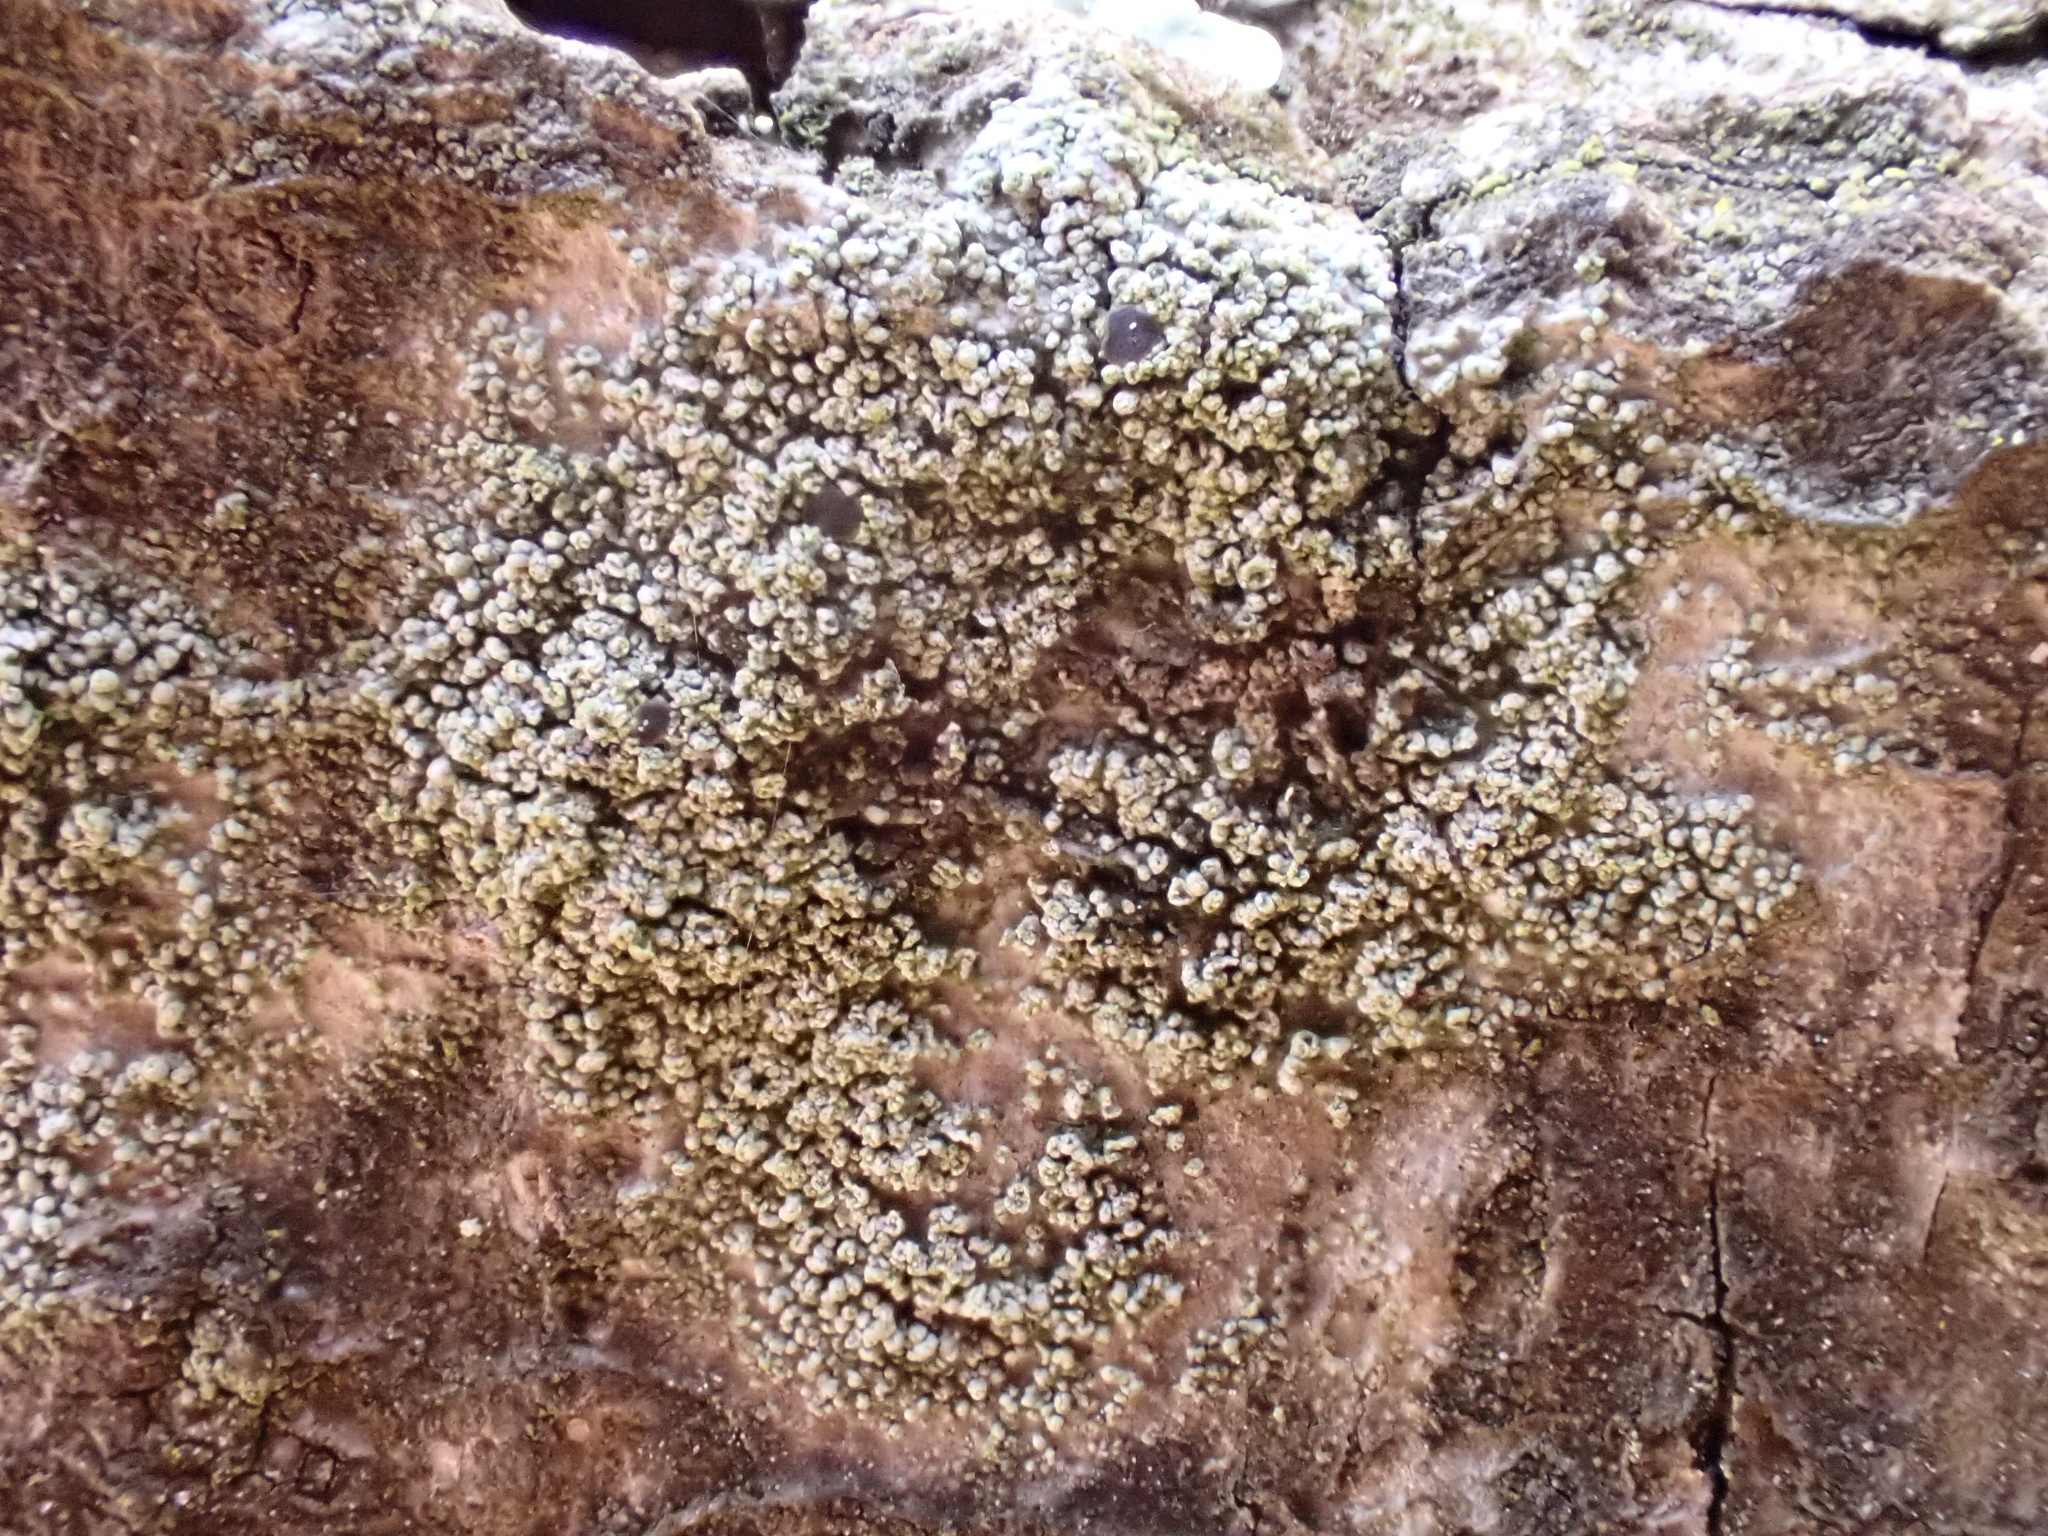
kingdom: Fungi
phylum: Ascomycota
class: Lecanoromycetes
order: Umbilicariales
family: Fuscideaceae
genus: Fuscidea
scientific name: Fuscidea lightfootii
